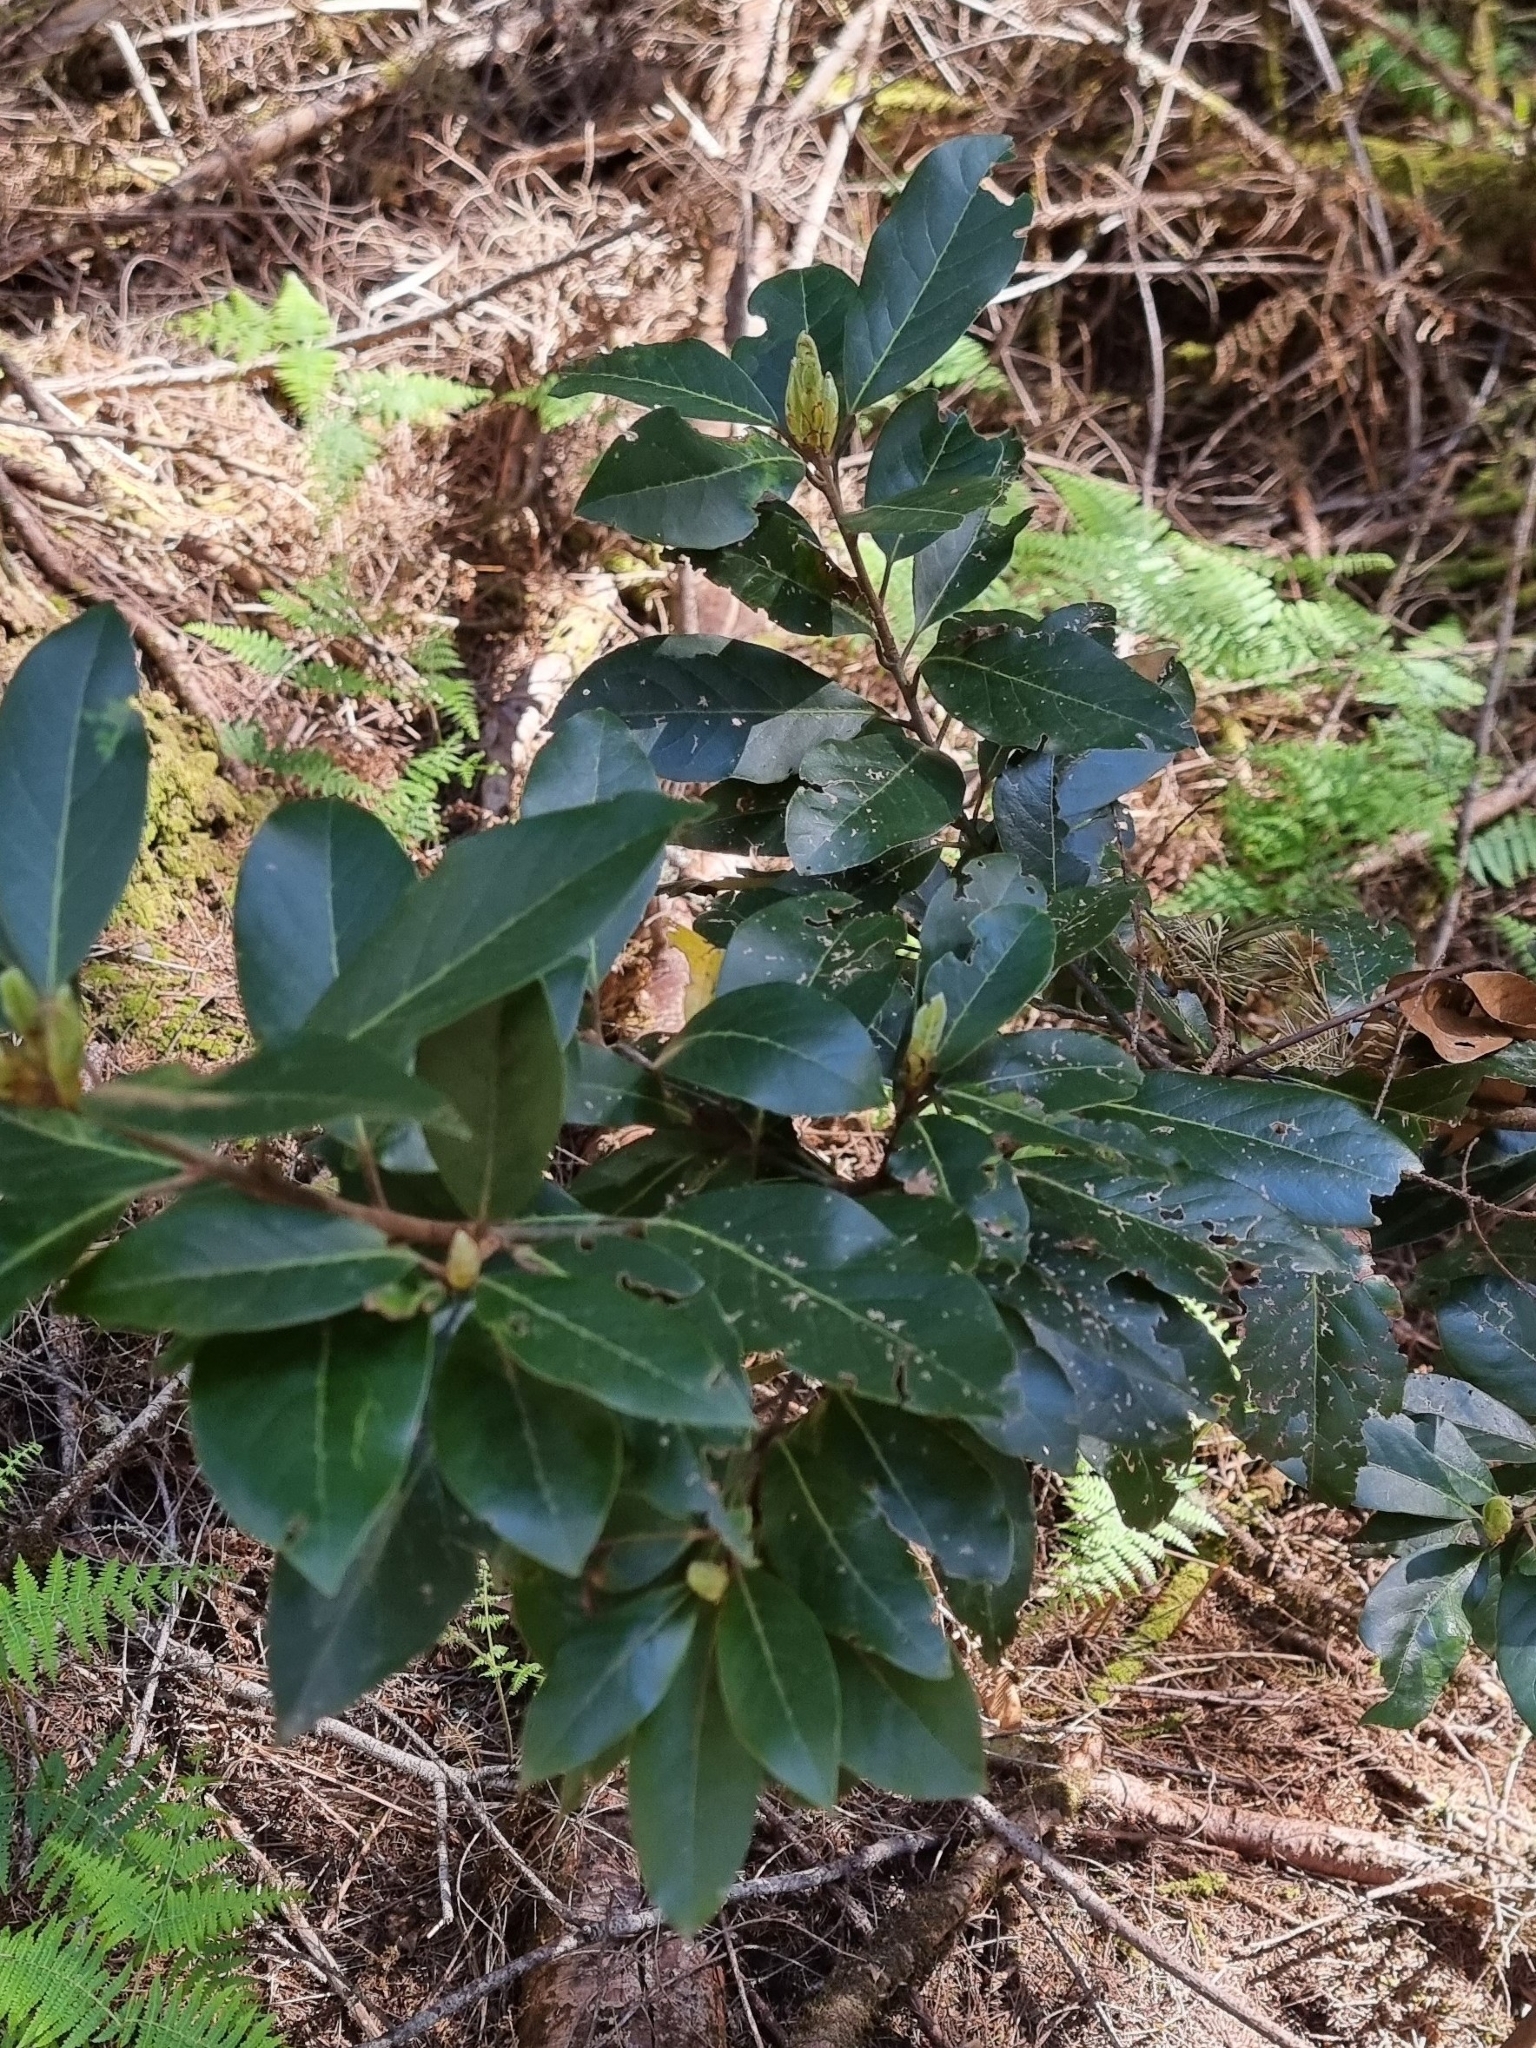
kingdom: Plantae
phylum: Tracheophyta
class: Magnoliopsida
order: Laurales
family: Lauraceae
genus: Laurus
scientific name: Laurus novocanariensis
